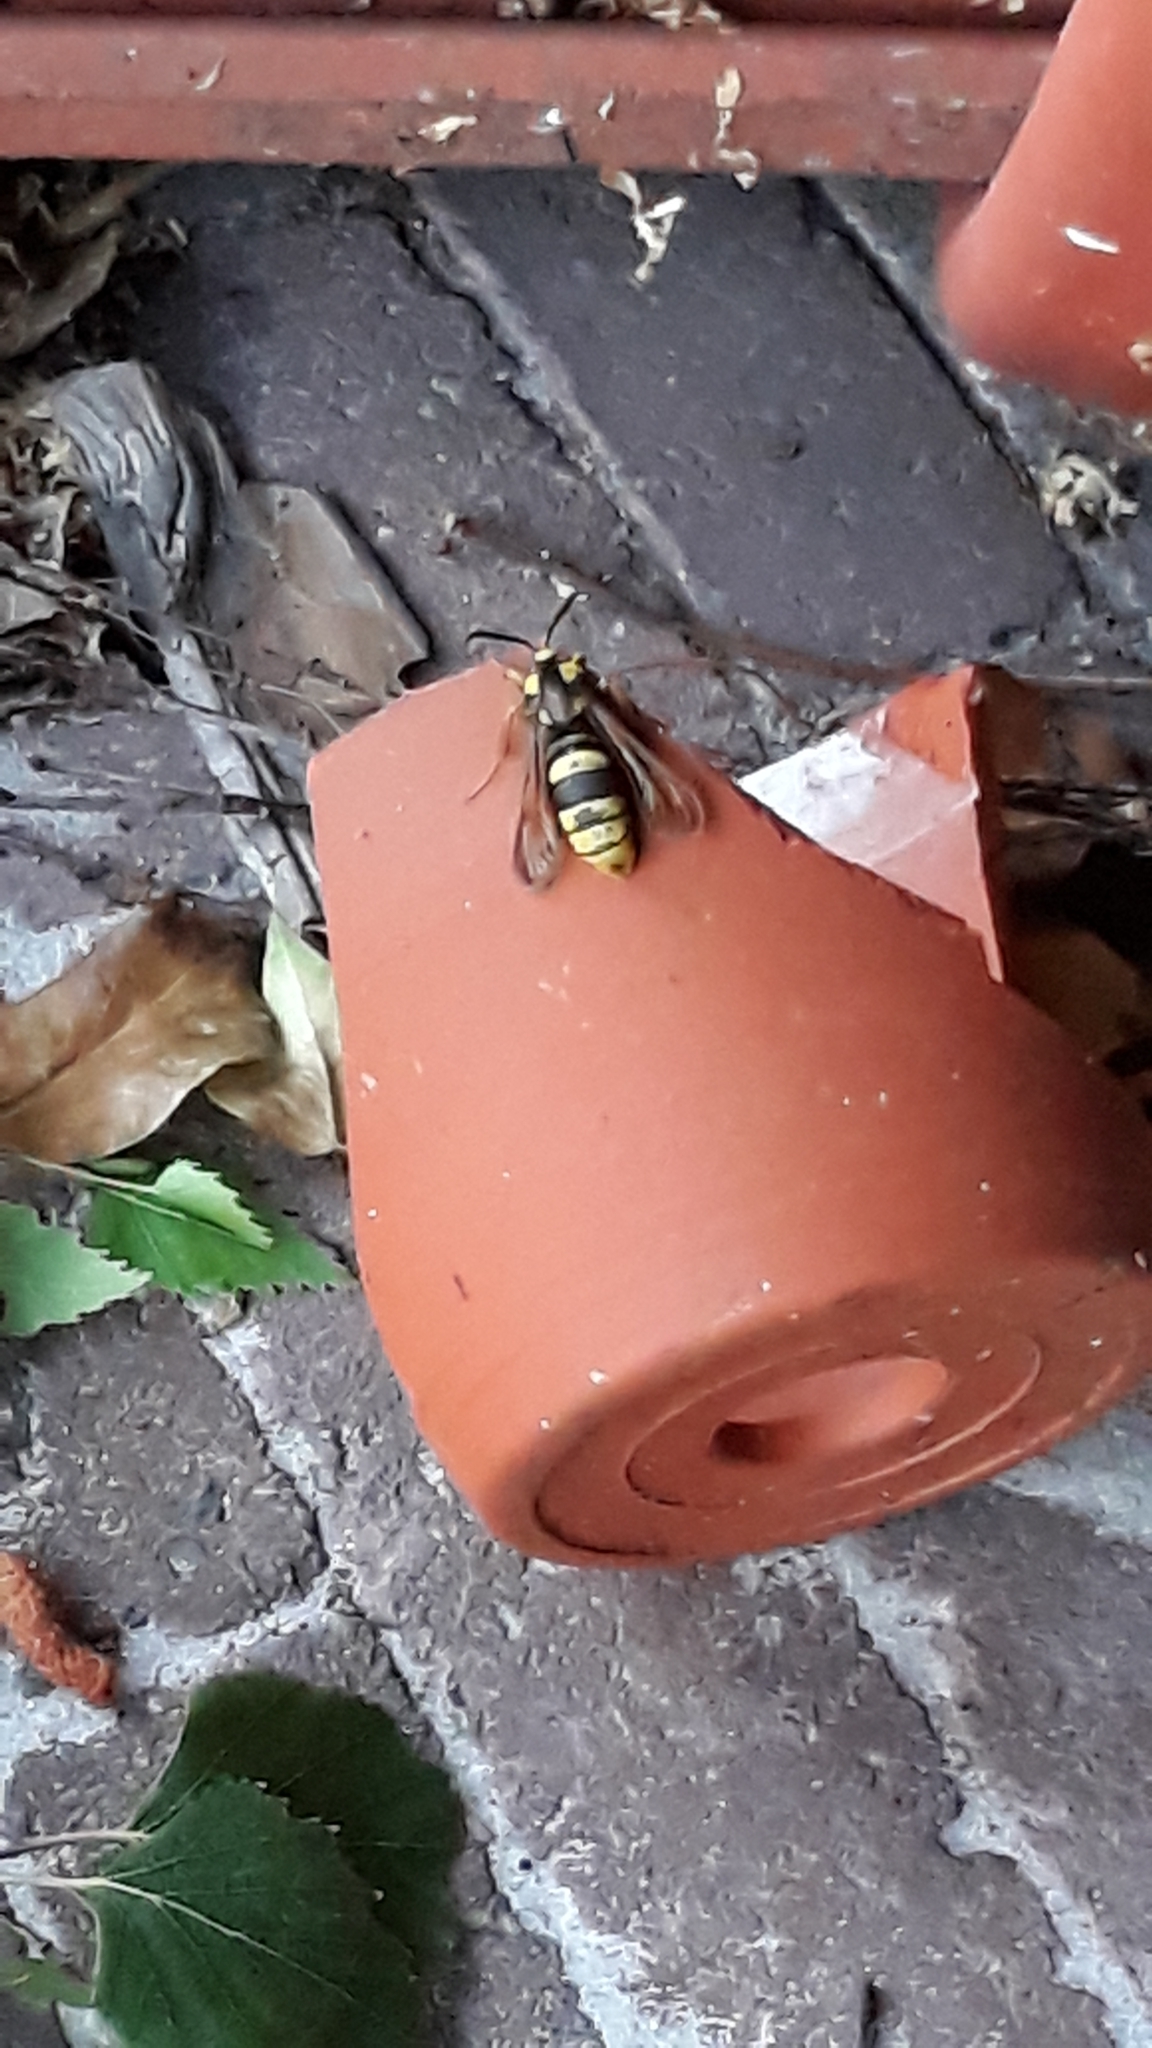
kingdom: Animalia
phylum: Arthropoda
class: Insecta
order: Lepidoptera
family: Sesiidae
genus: Sesia
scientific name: Sesia apiformis
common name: Hornet moth
